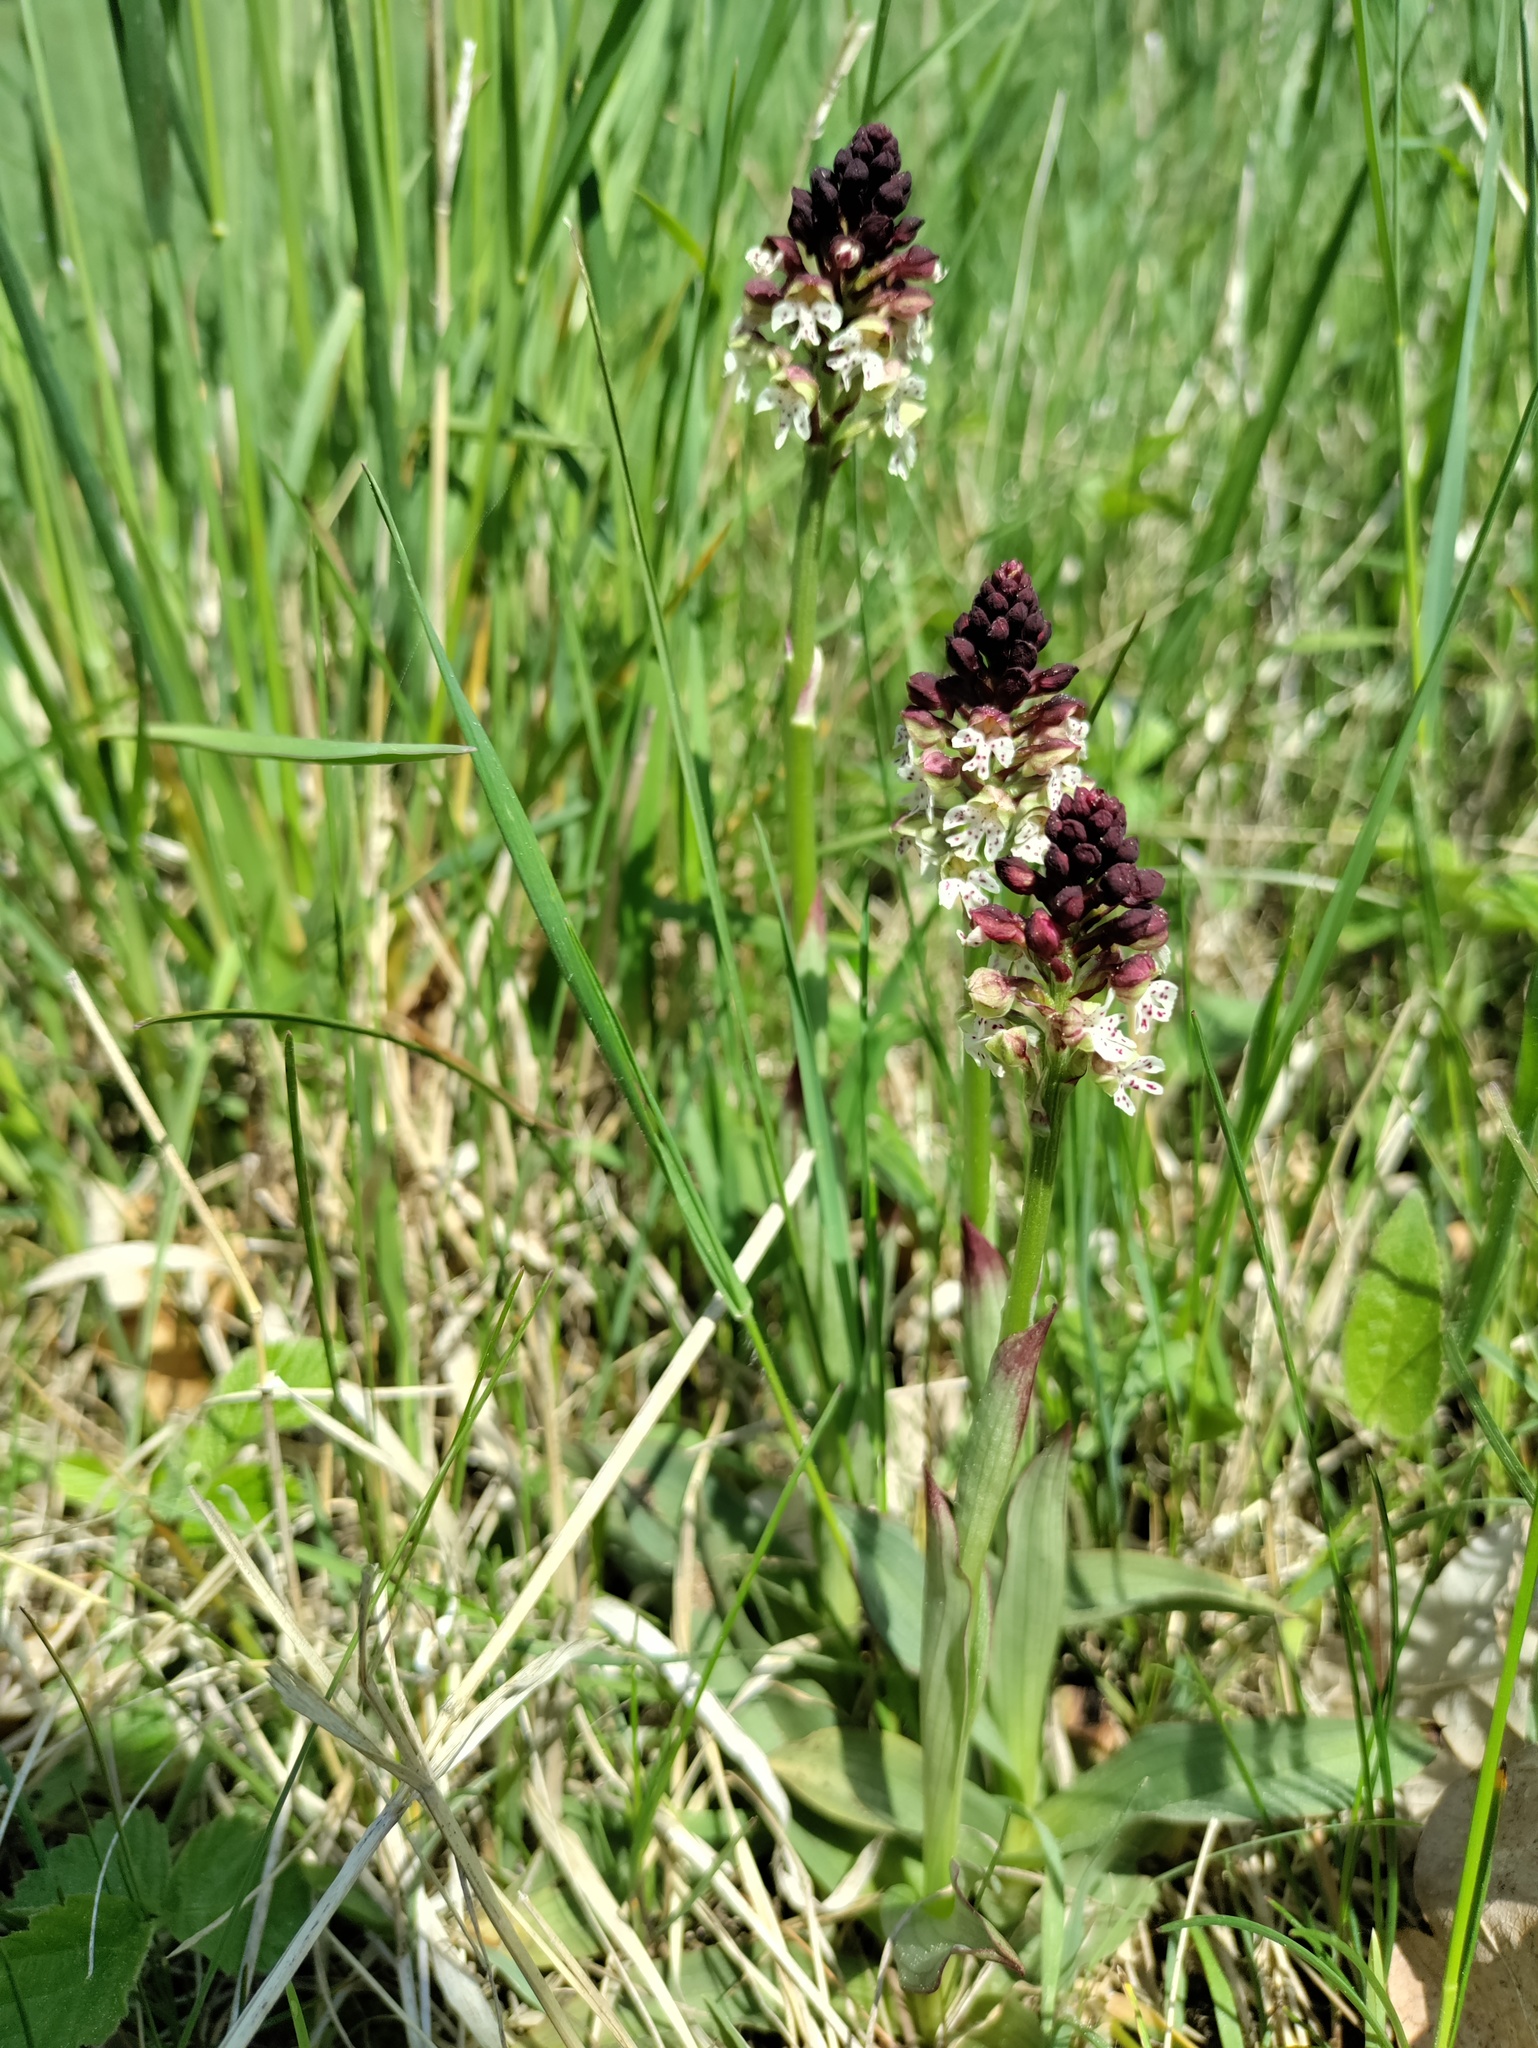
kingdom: Plantae
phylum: Tracheophyta
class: Liliopsida
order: Asparagales
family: Orchidaceae
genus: Neotinea
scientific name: Neotinea ustulata
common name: Burnt orchid
